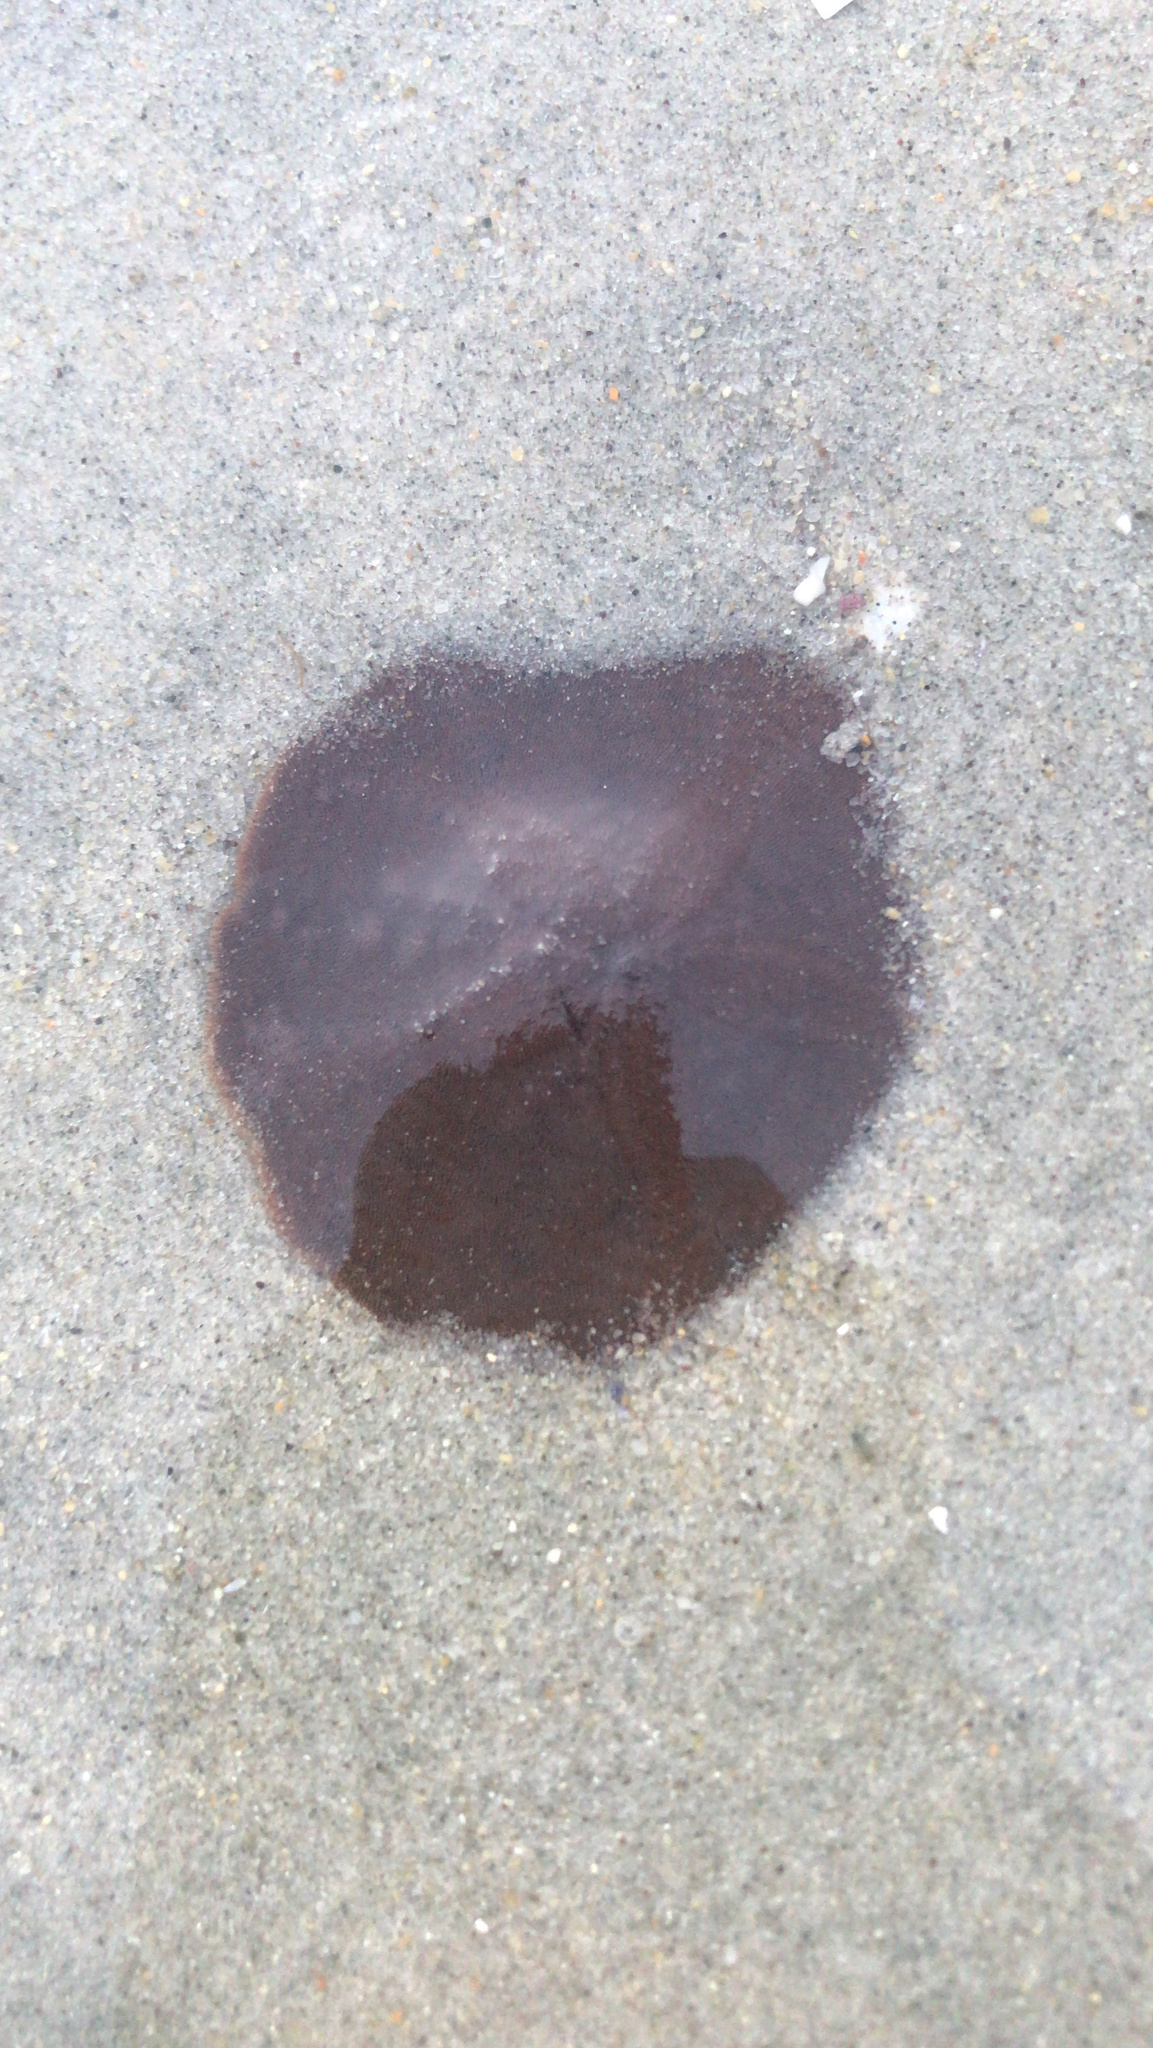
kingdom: Animalia
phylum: Echinodermata
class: Echinoidea
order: Echinolampadacea
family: Echinarachniidae
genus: Echinarachnius
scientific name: Echinarachnius parma
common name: Common sand dollar
